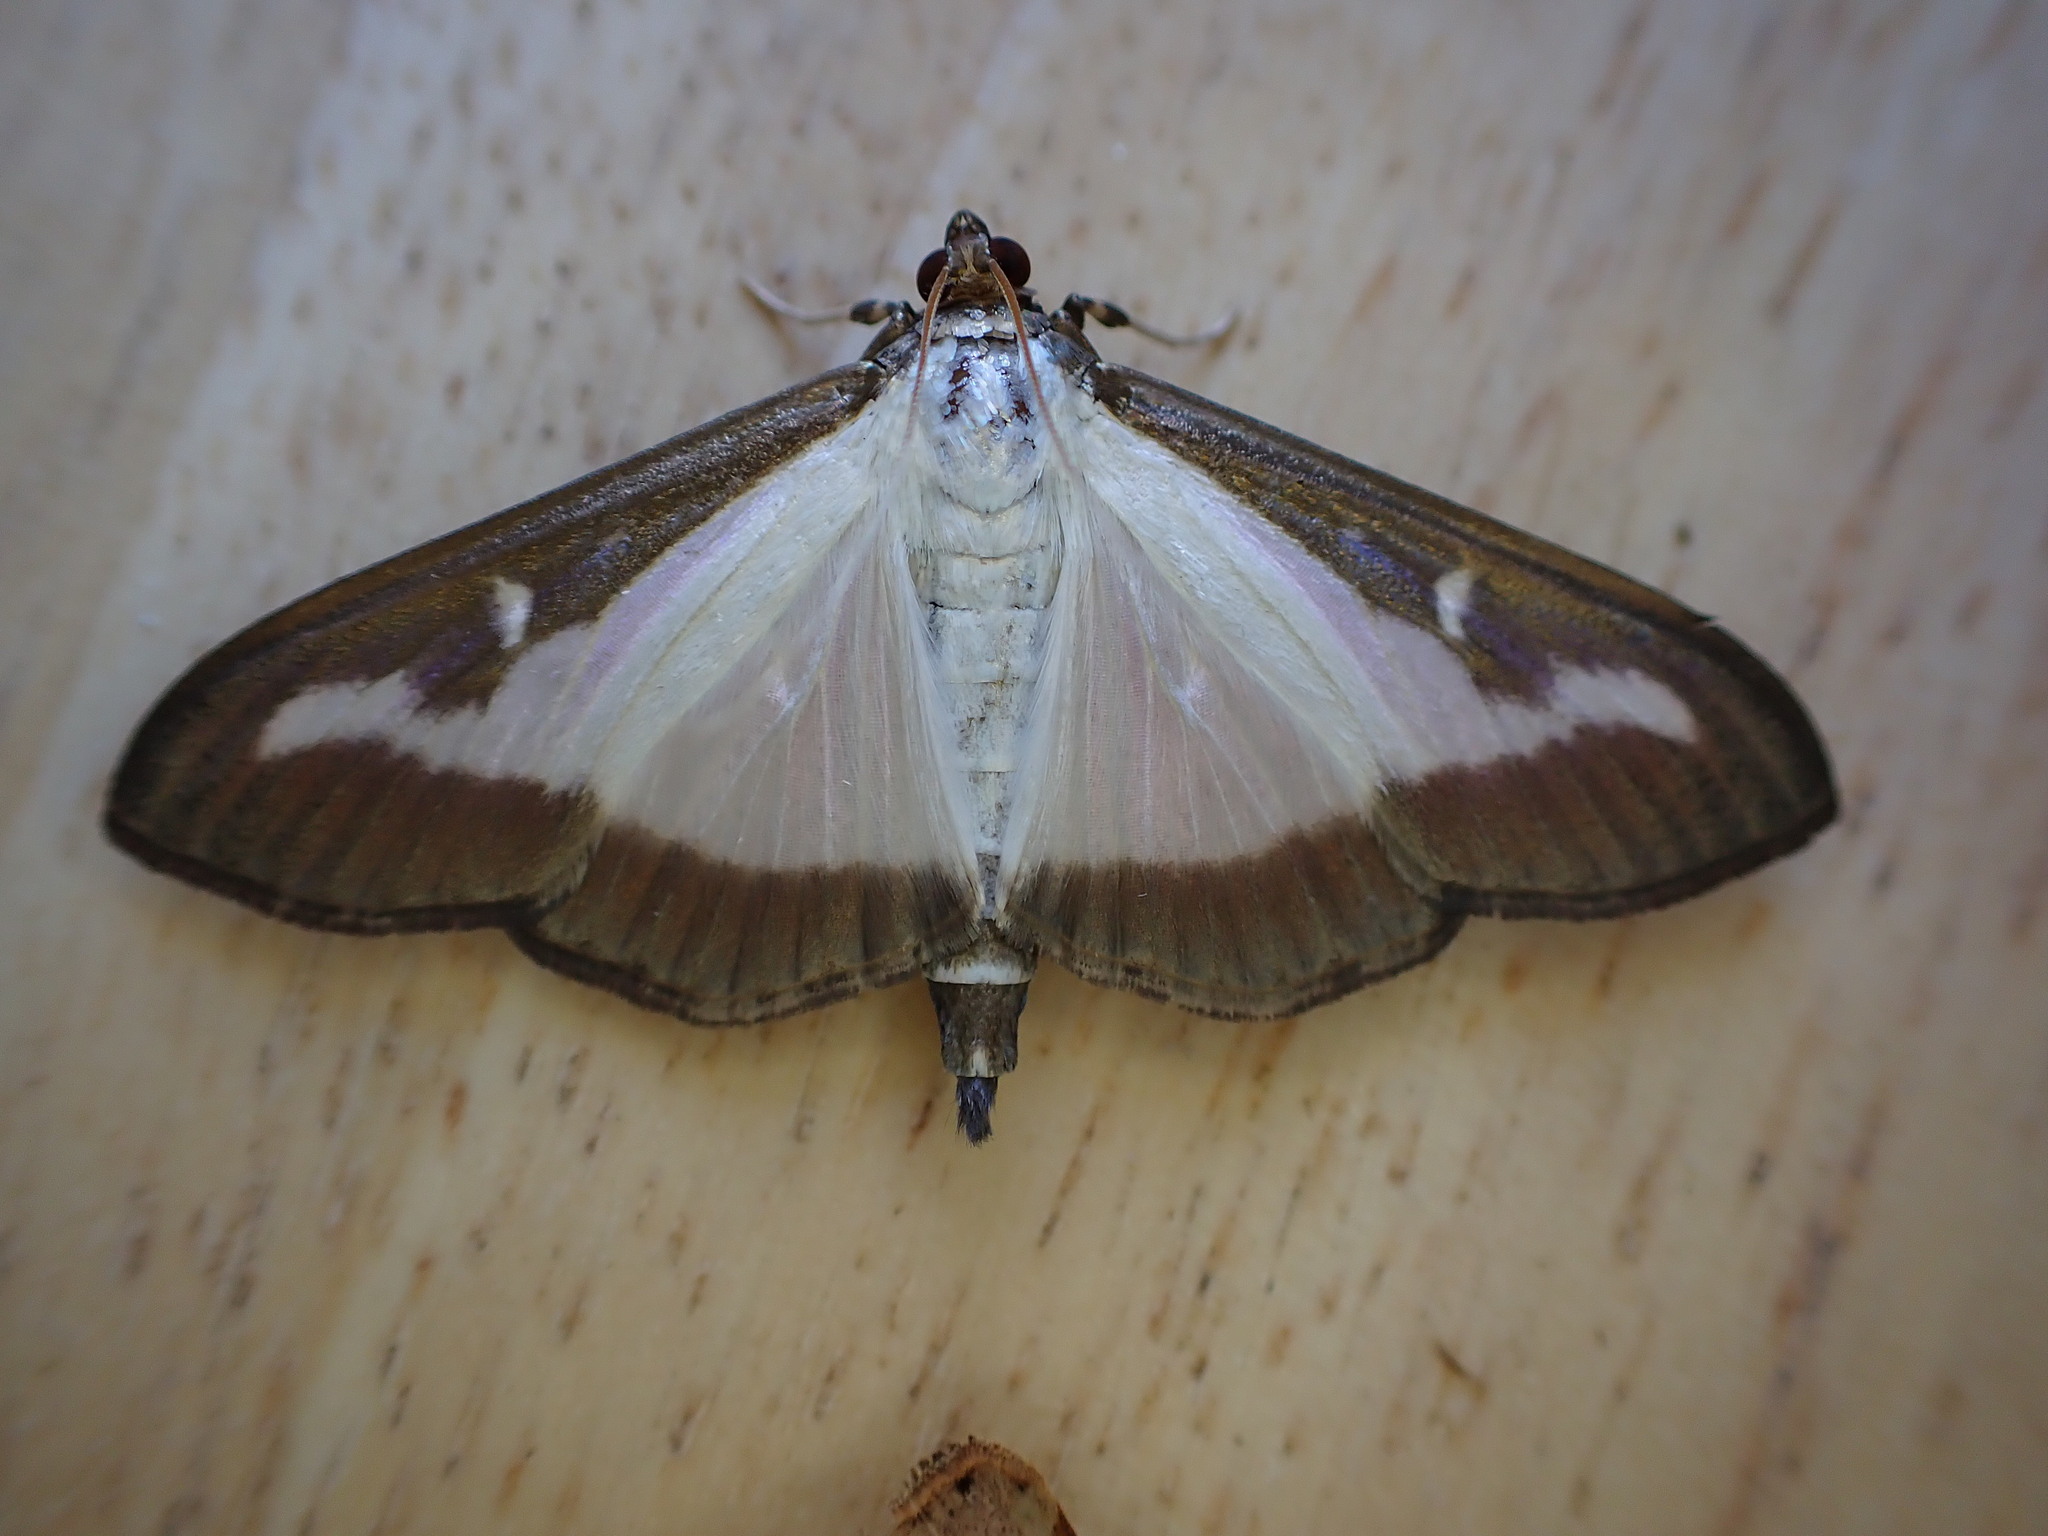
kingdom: Animalia
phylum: Arthropoda
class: Insecta
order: Lepidoptera
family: Crambidae
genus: Cydalima
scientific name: Cydalima perspectalis
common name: Box tree moth
